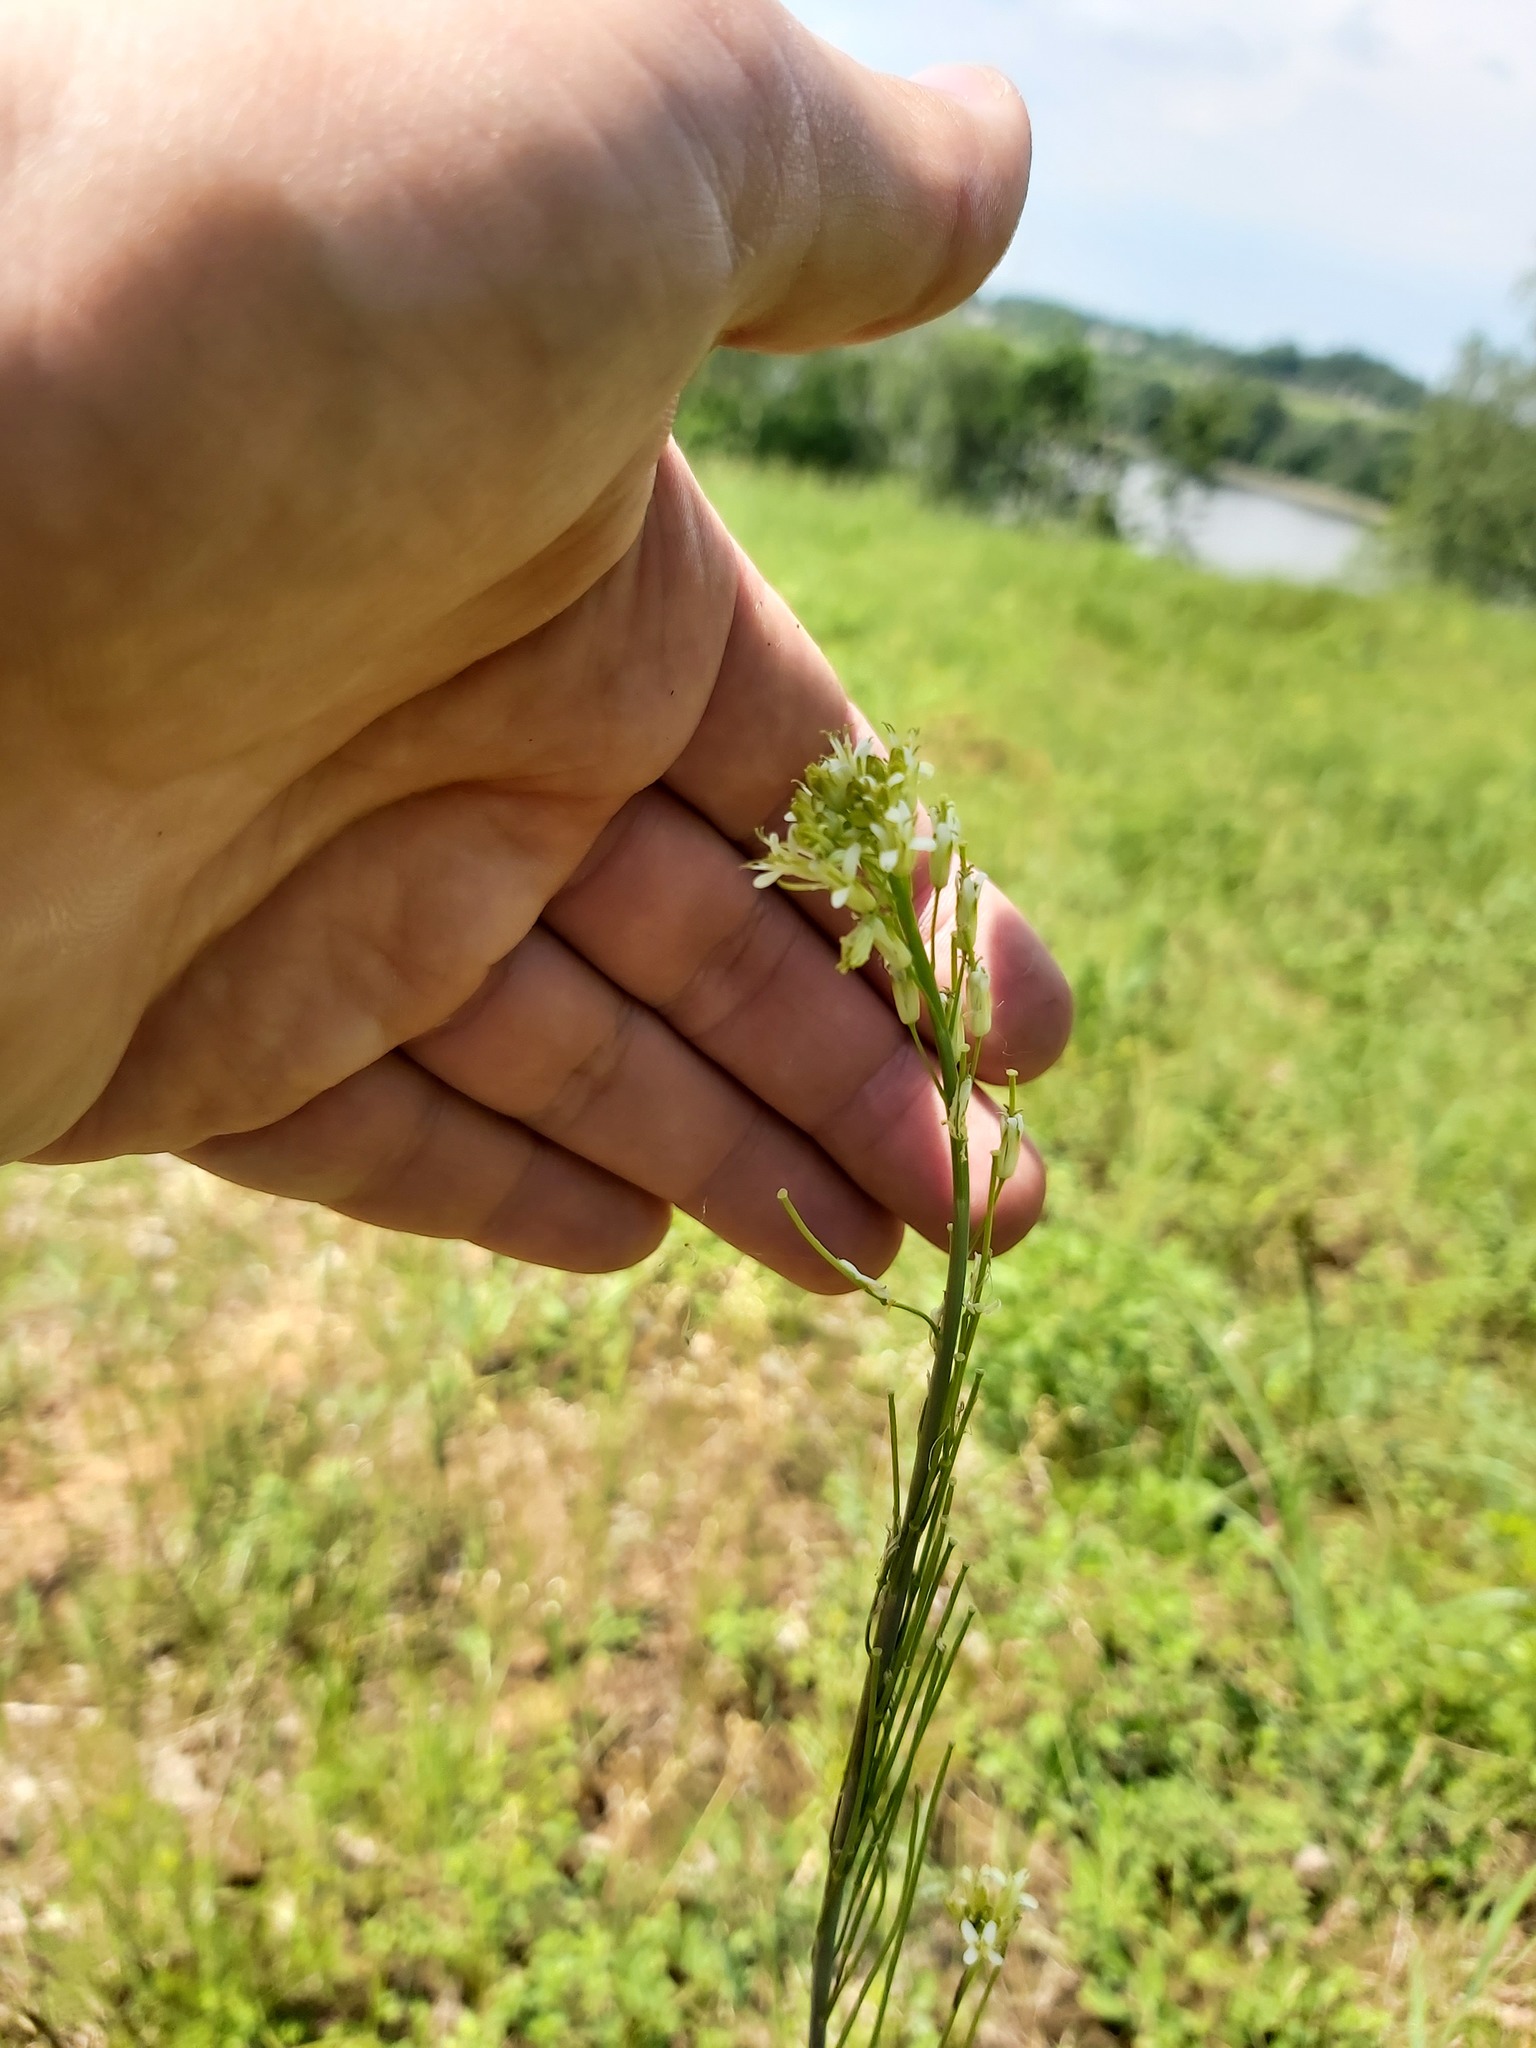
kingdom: Plantae
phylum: Tracheophyta
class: Magnoliopsida
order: Brassicales
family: Brassicaceae
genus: Turritis
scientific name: Turritis glabra
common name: Tower rockcress
